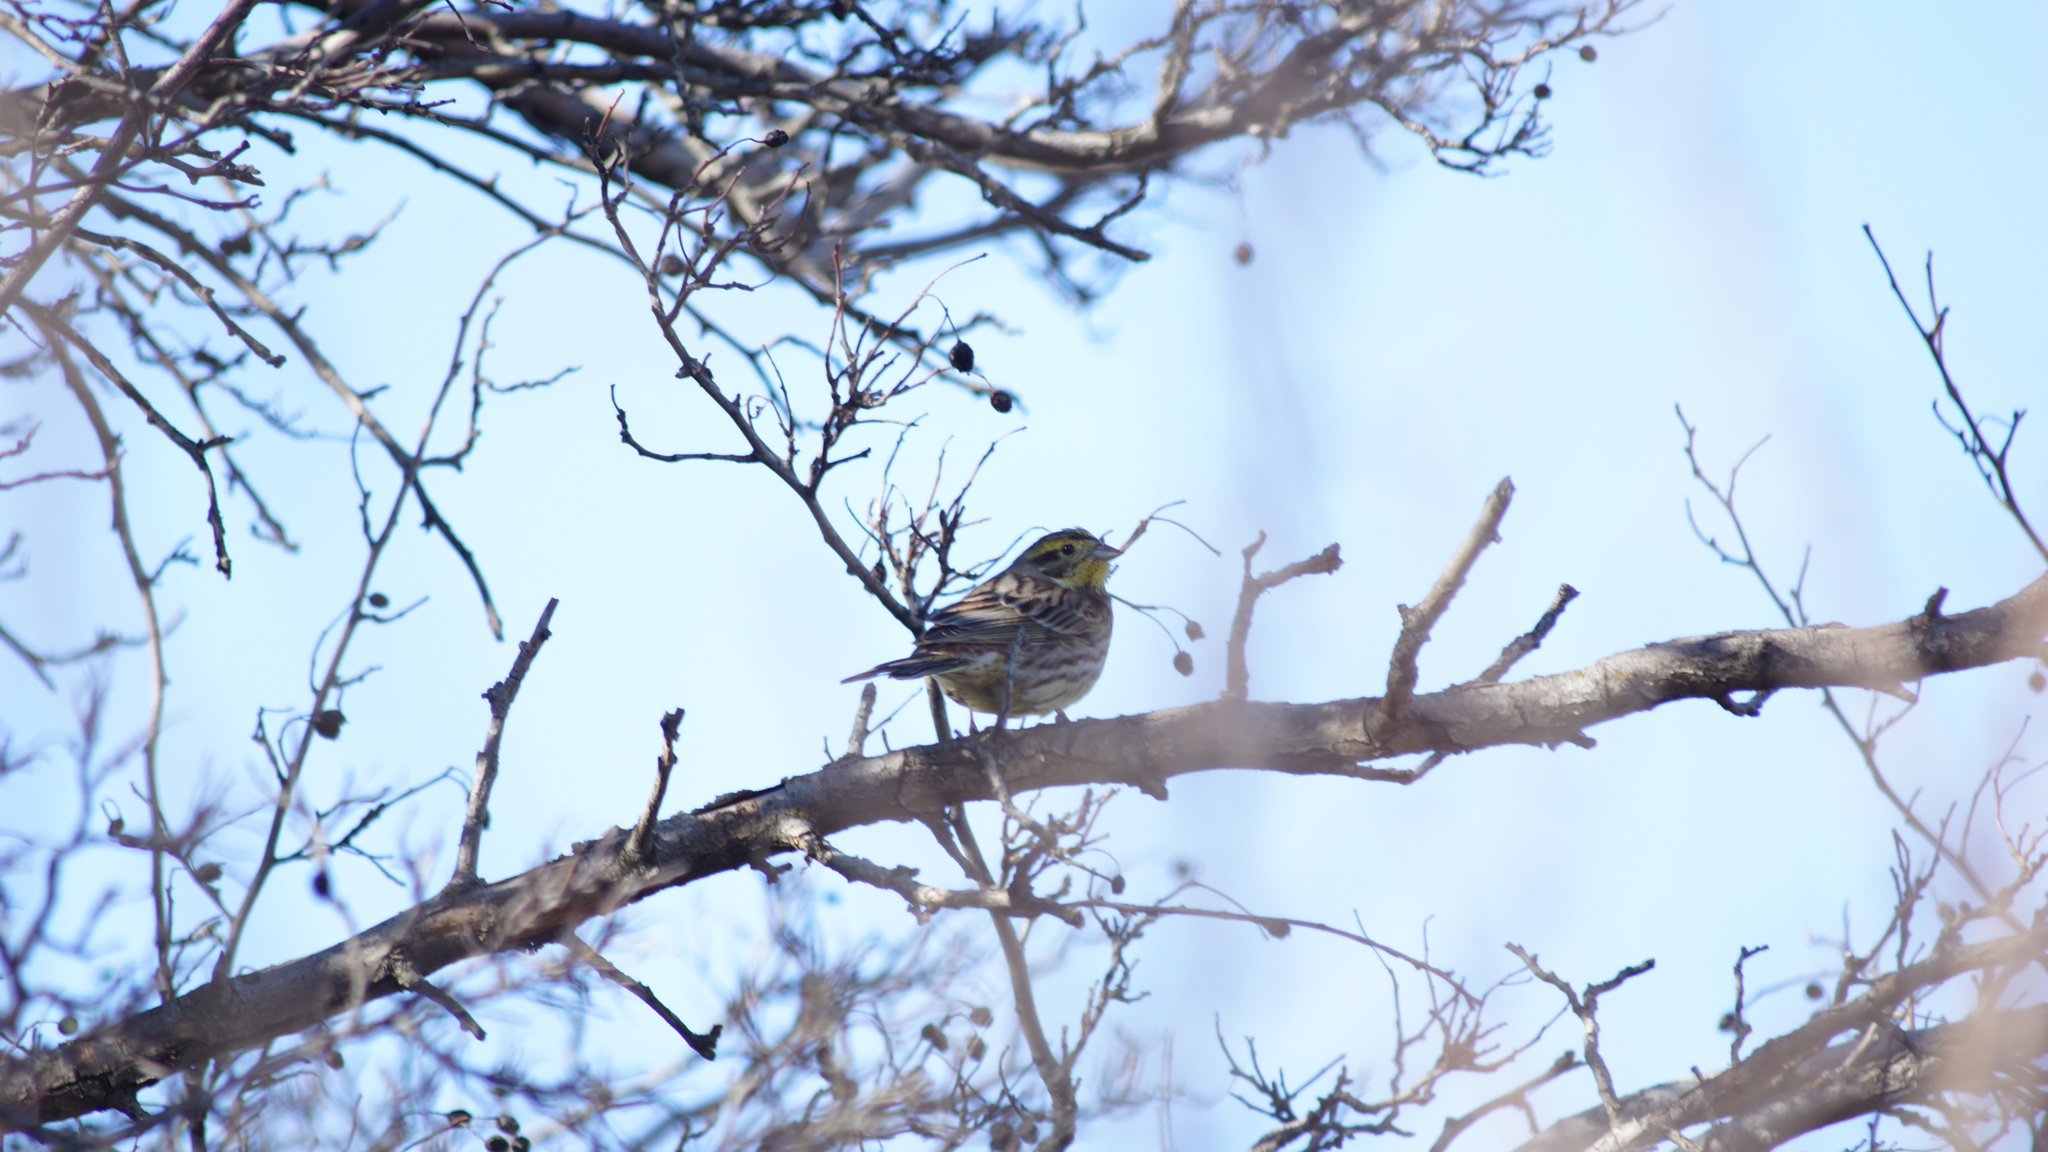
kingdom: Animalia
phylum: Chordata
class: Aves
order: Passeriformes
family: Emberizidae
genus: Emberiza
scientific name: Emberiza citrinella
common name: Yellowhammer
